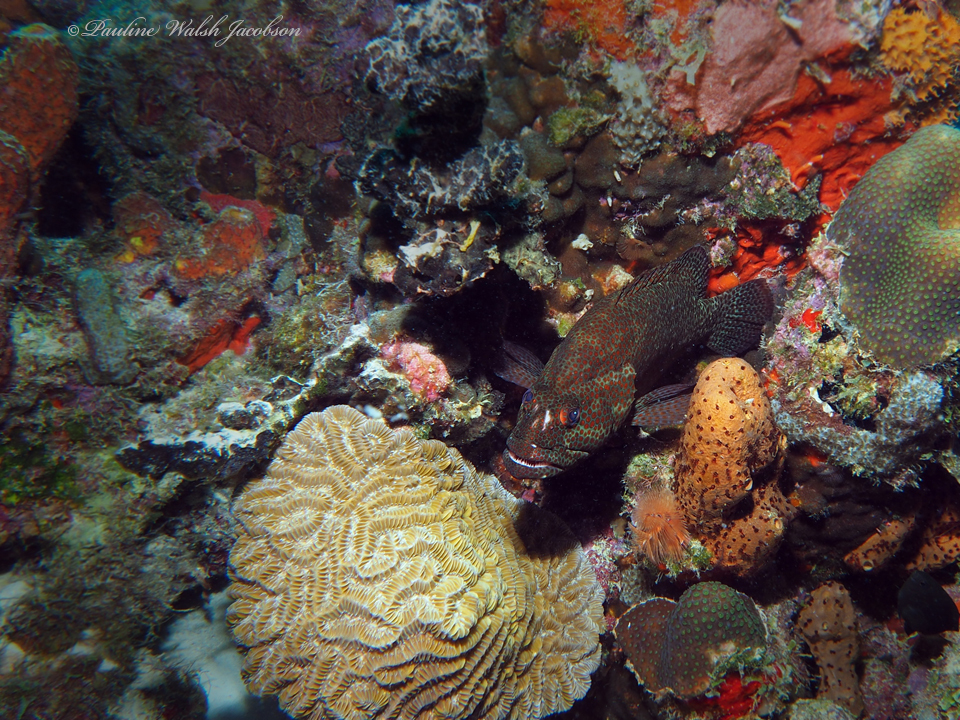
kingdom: Animalia
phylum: Chordata
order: Perciformes
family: Serranidae
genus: Cephalopholis
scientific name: Cephalopholis cruentata
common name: Graysby
